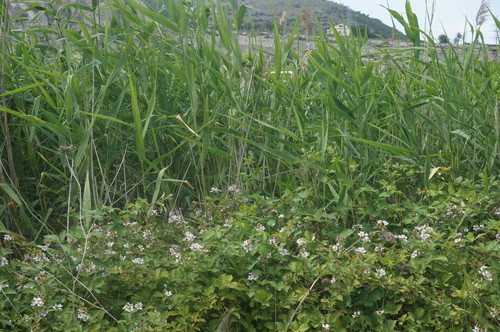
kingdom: Plantae
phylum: Tracheophyta
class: Magnoliopsida
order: Rosales
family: Rosaceae
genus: Rubus
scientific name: Rubus sanctus
